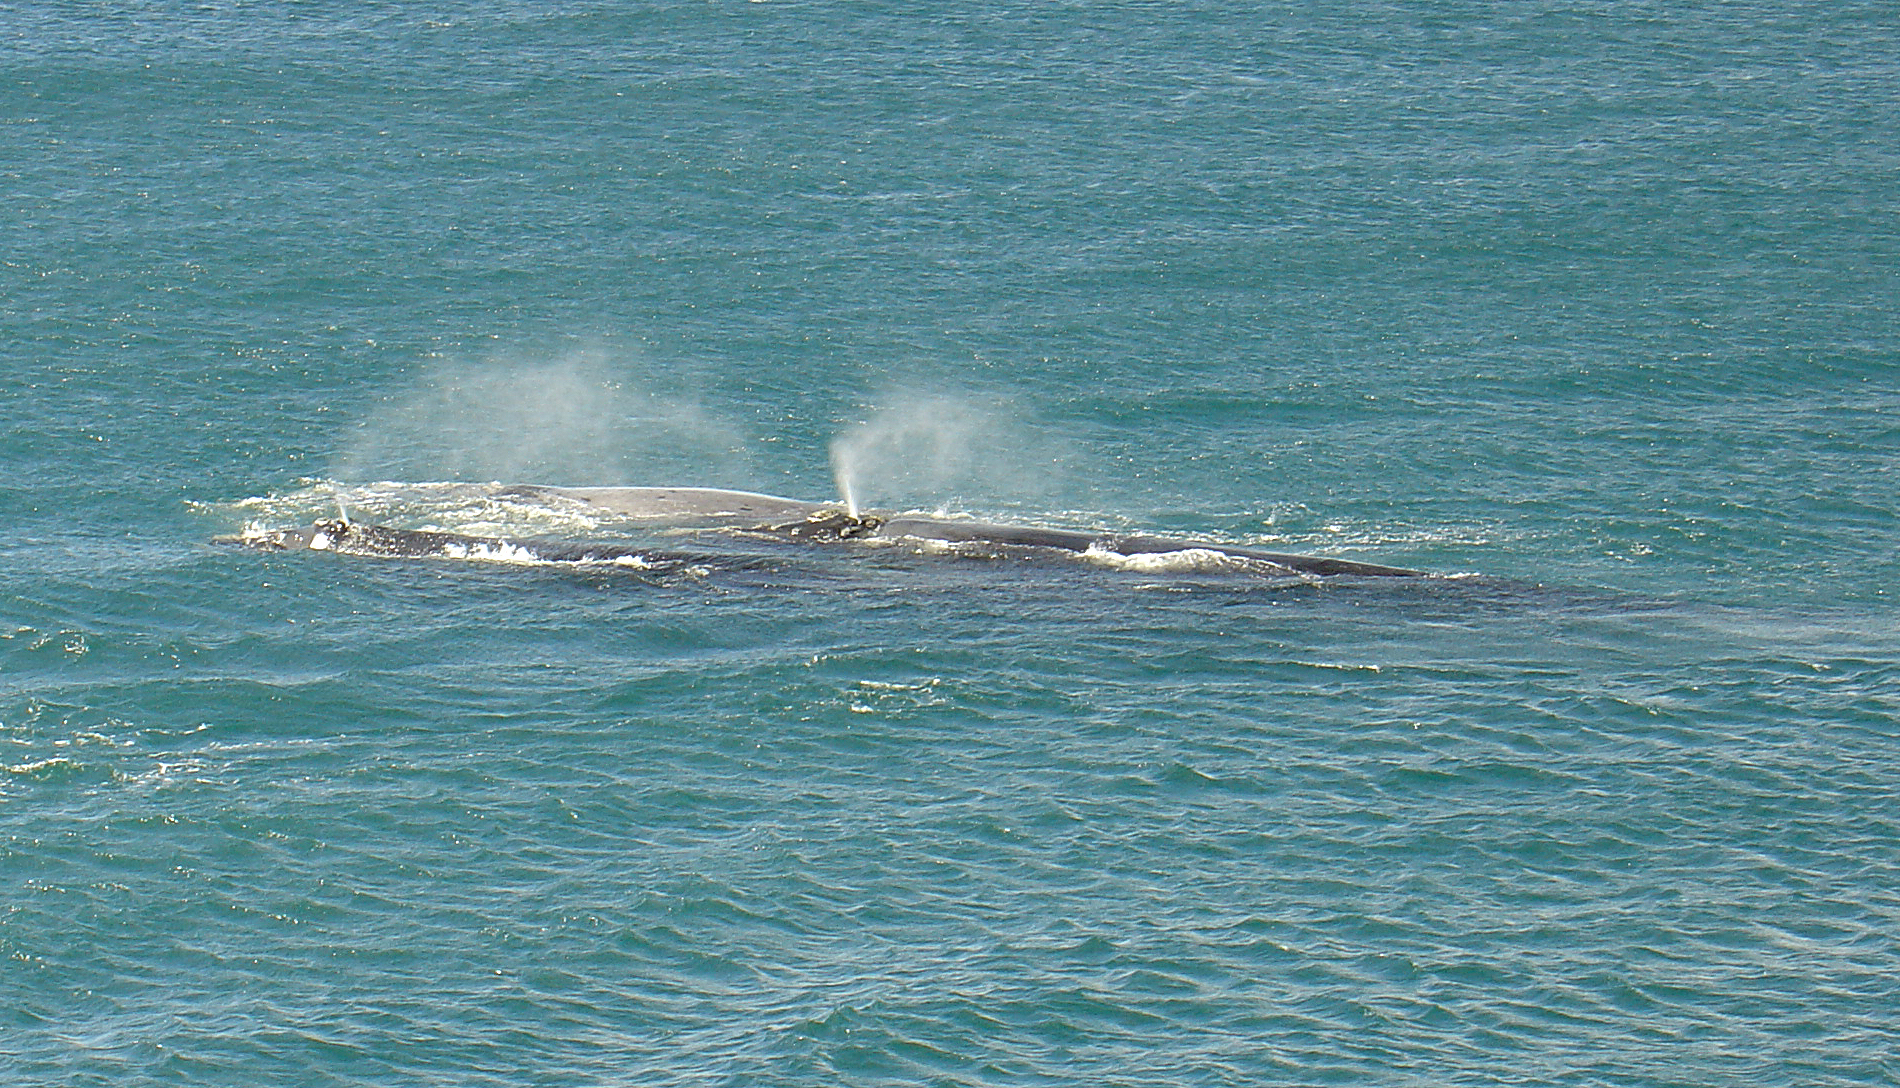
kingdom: Animalia
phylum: Chordata
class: Mammalia
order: Cetacea
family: Balaenidae
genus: Eubalaena
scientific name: Eubalaena australis
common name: Southern right whale
